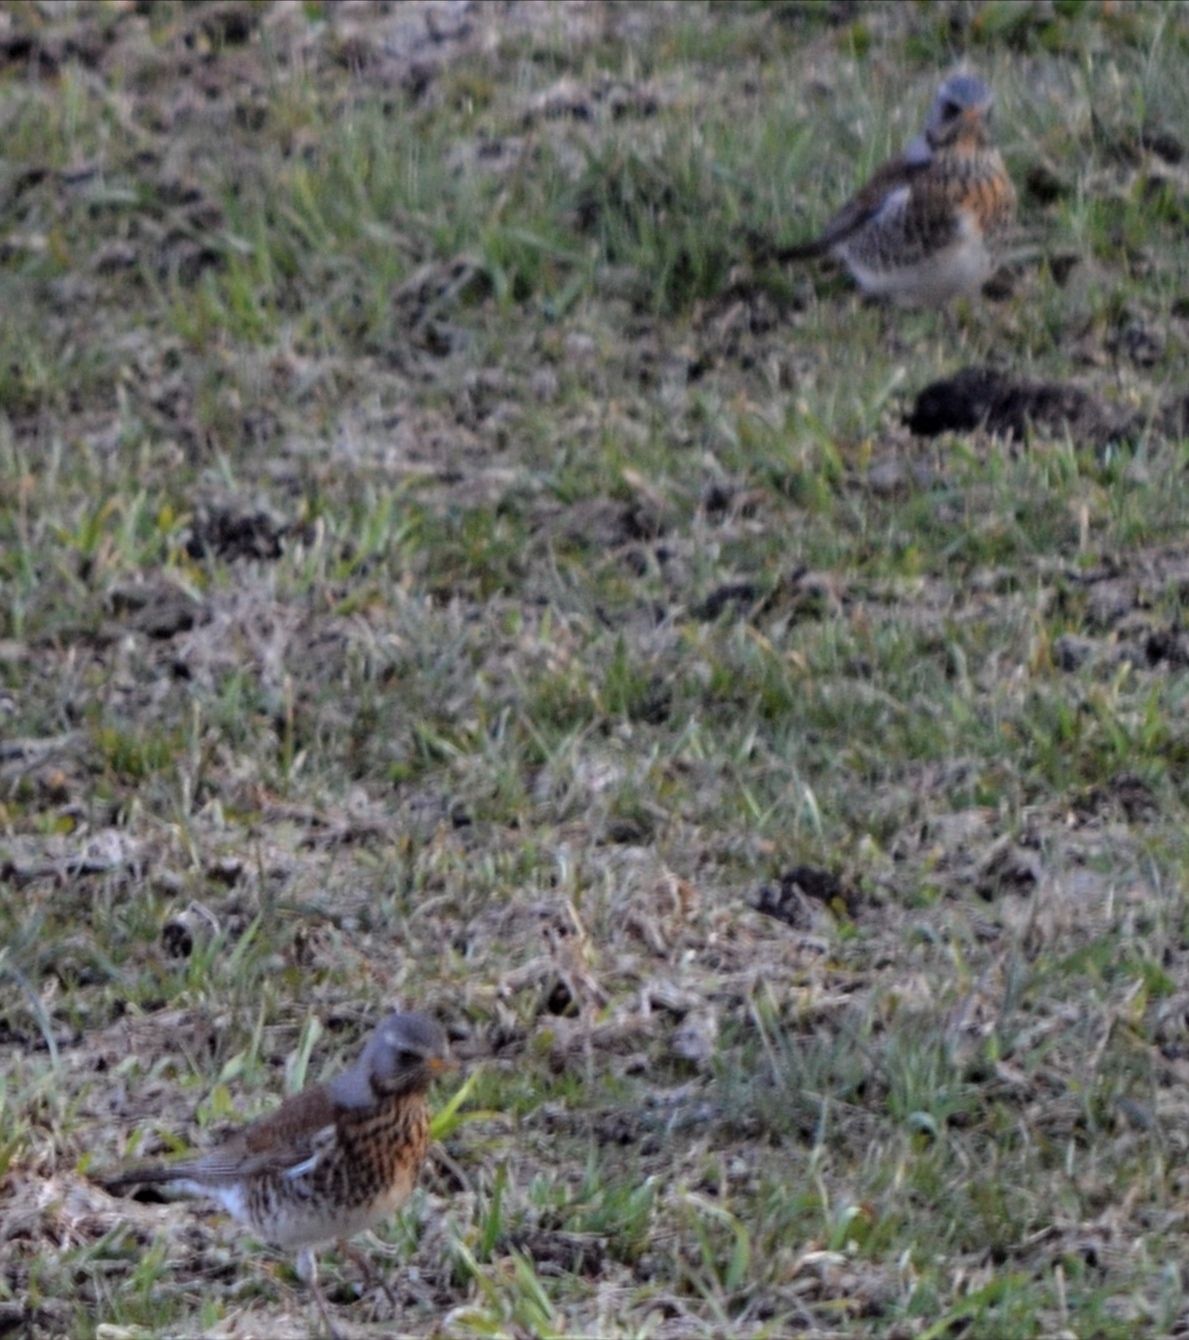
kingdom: Animalia
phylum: Chordata
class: Aves
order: Passeriformes
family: Turdidae
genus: Turdus
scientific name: Turdus pilaris
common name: Fieldfare
